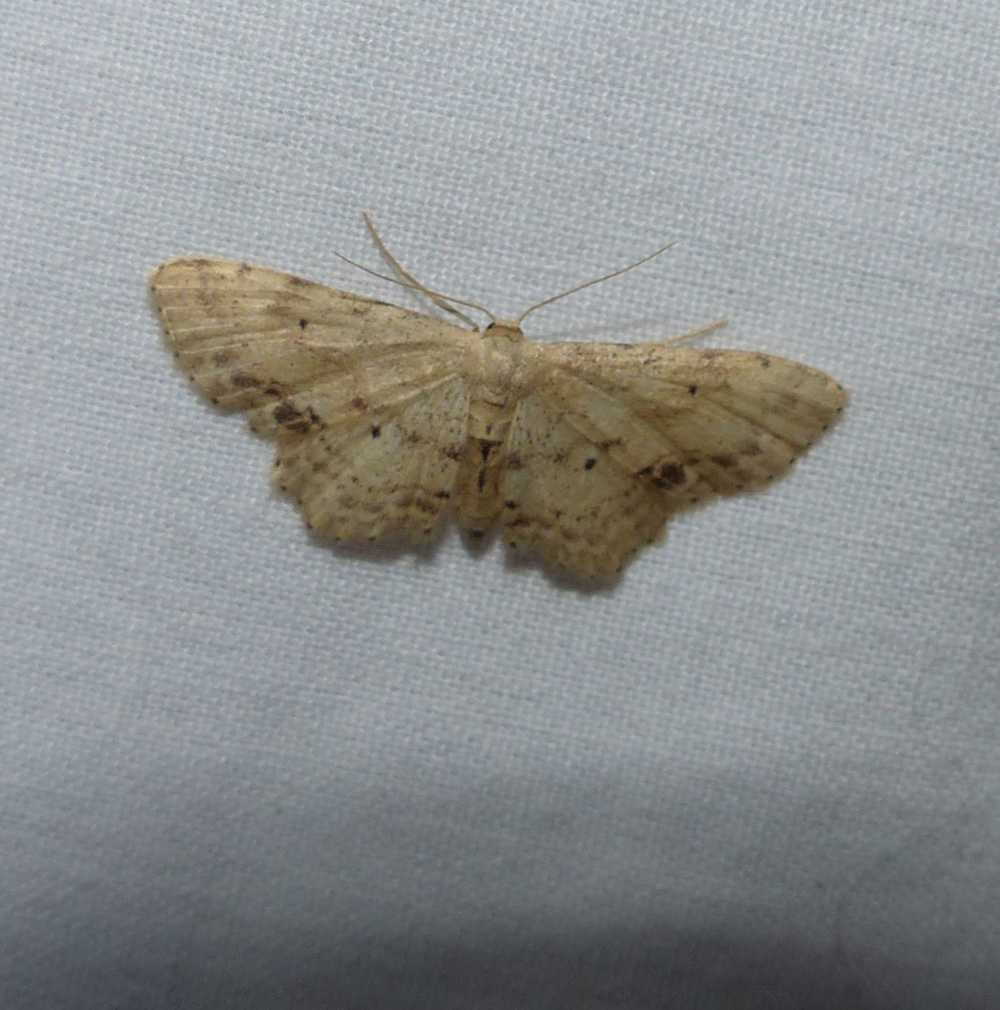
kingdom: Animalia
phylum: Arthropoda
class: Insecta
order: Lepidoptera
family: Geometridae
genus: Idaea
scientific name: Idaea dimidiata
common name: Single-dotted wave
